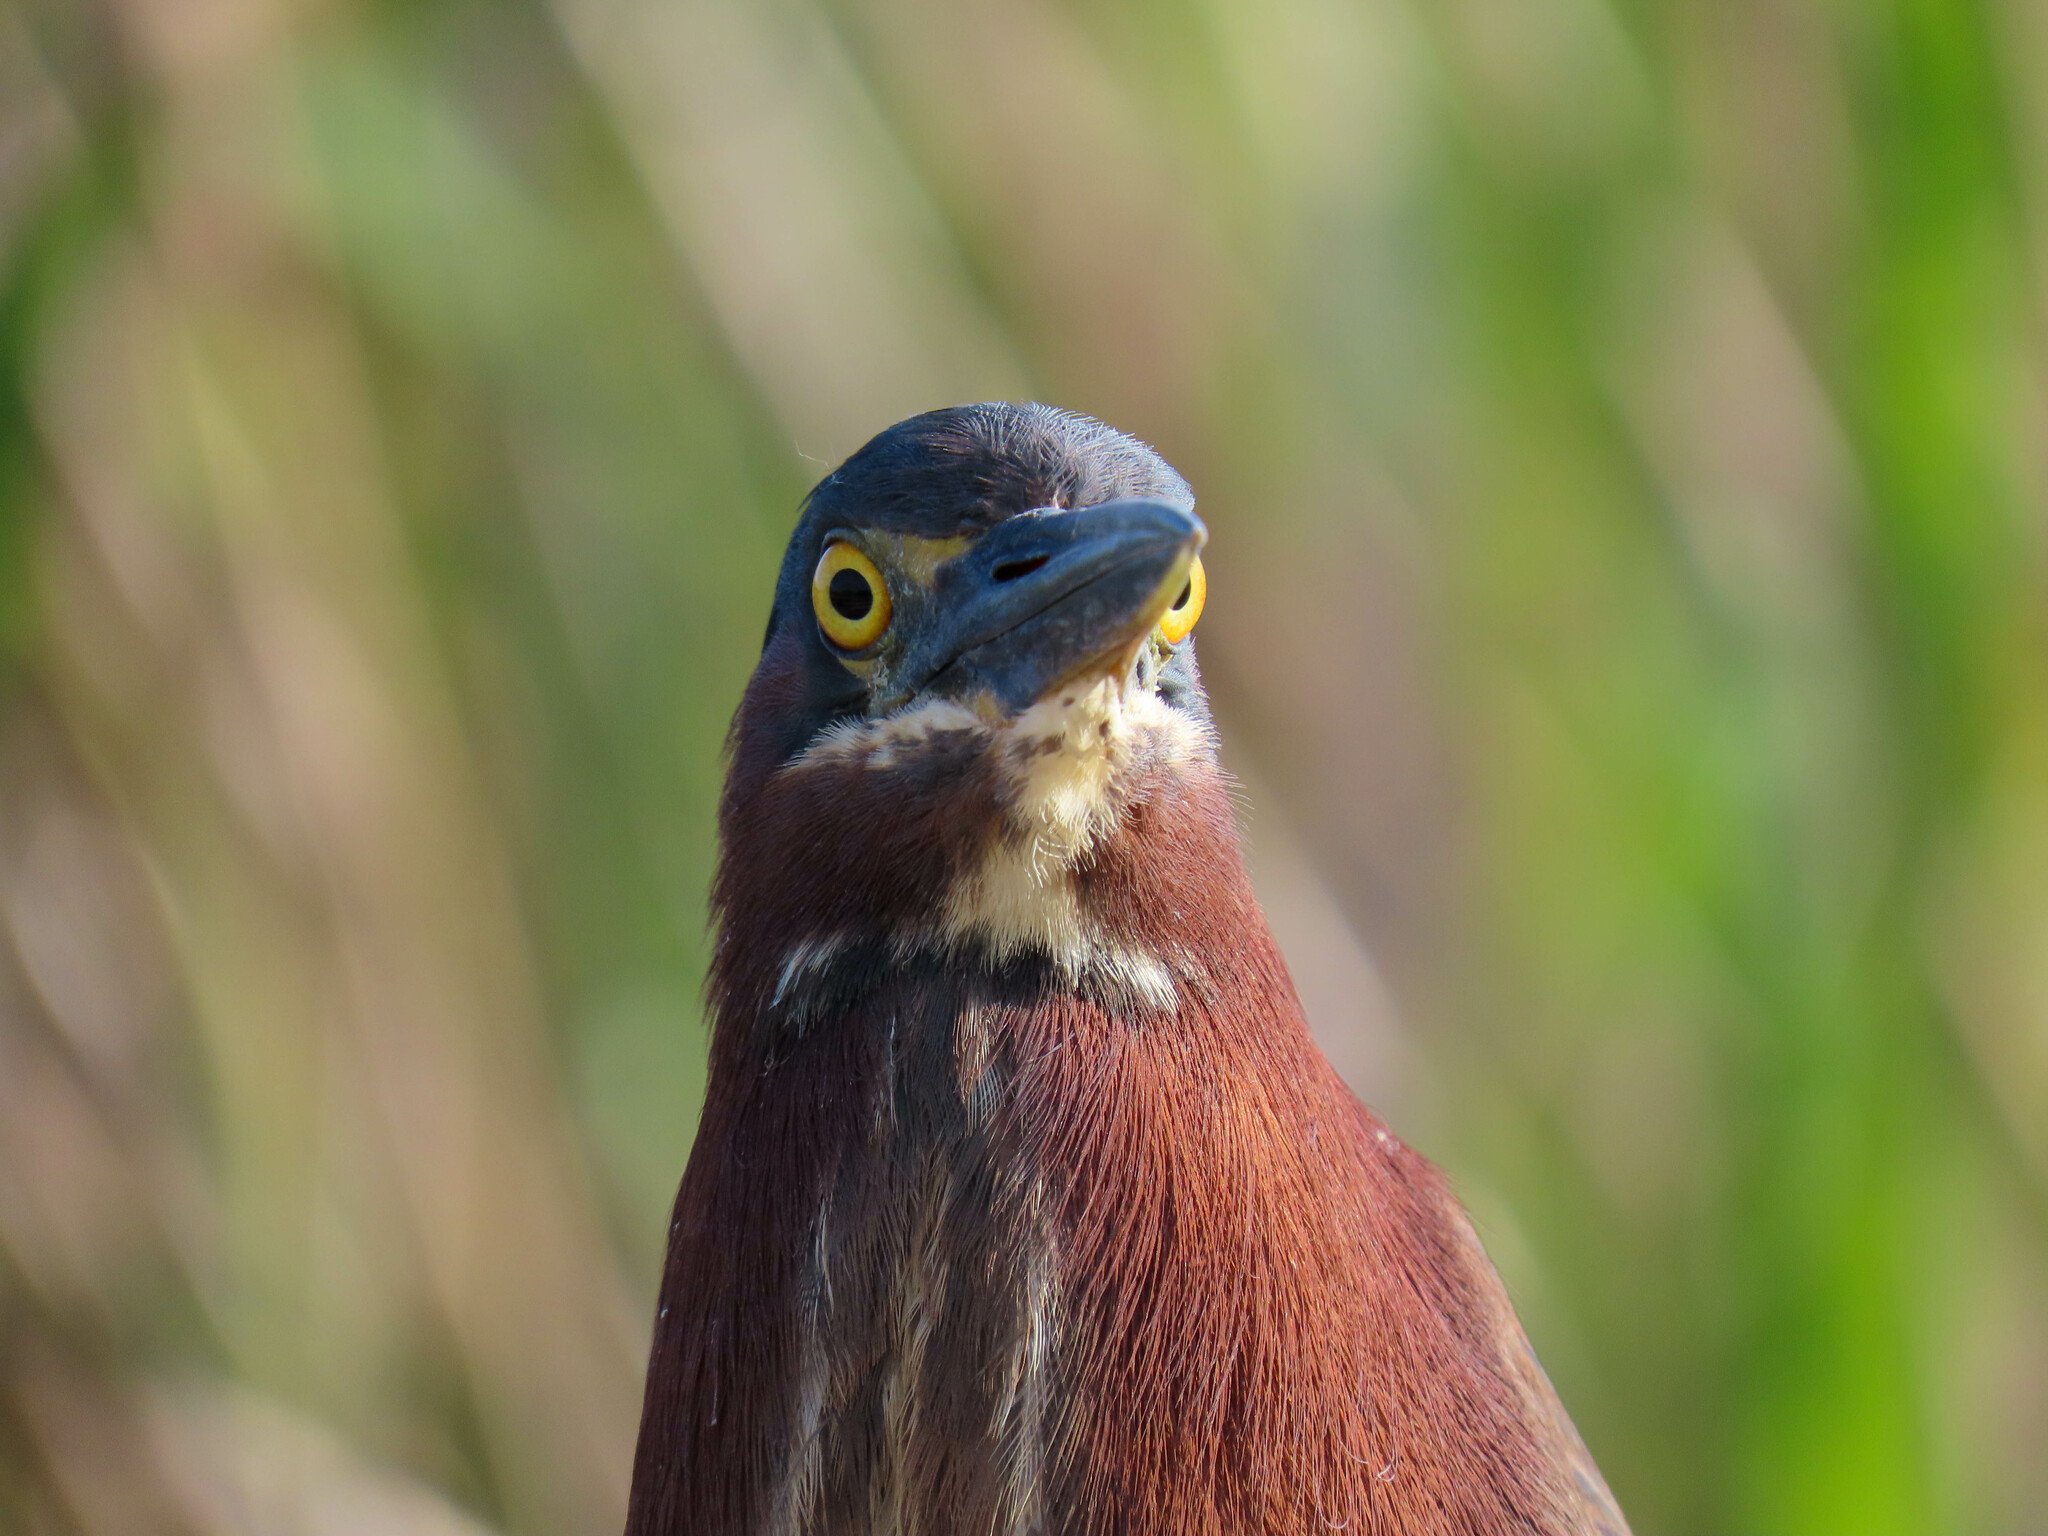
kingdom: Animalia
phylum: Chordata
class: Aves
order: Pelecaniformes
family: Ardeidae
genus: Butorides
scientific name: Butorides virescens
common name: Green heron
